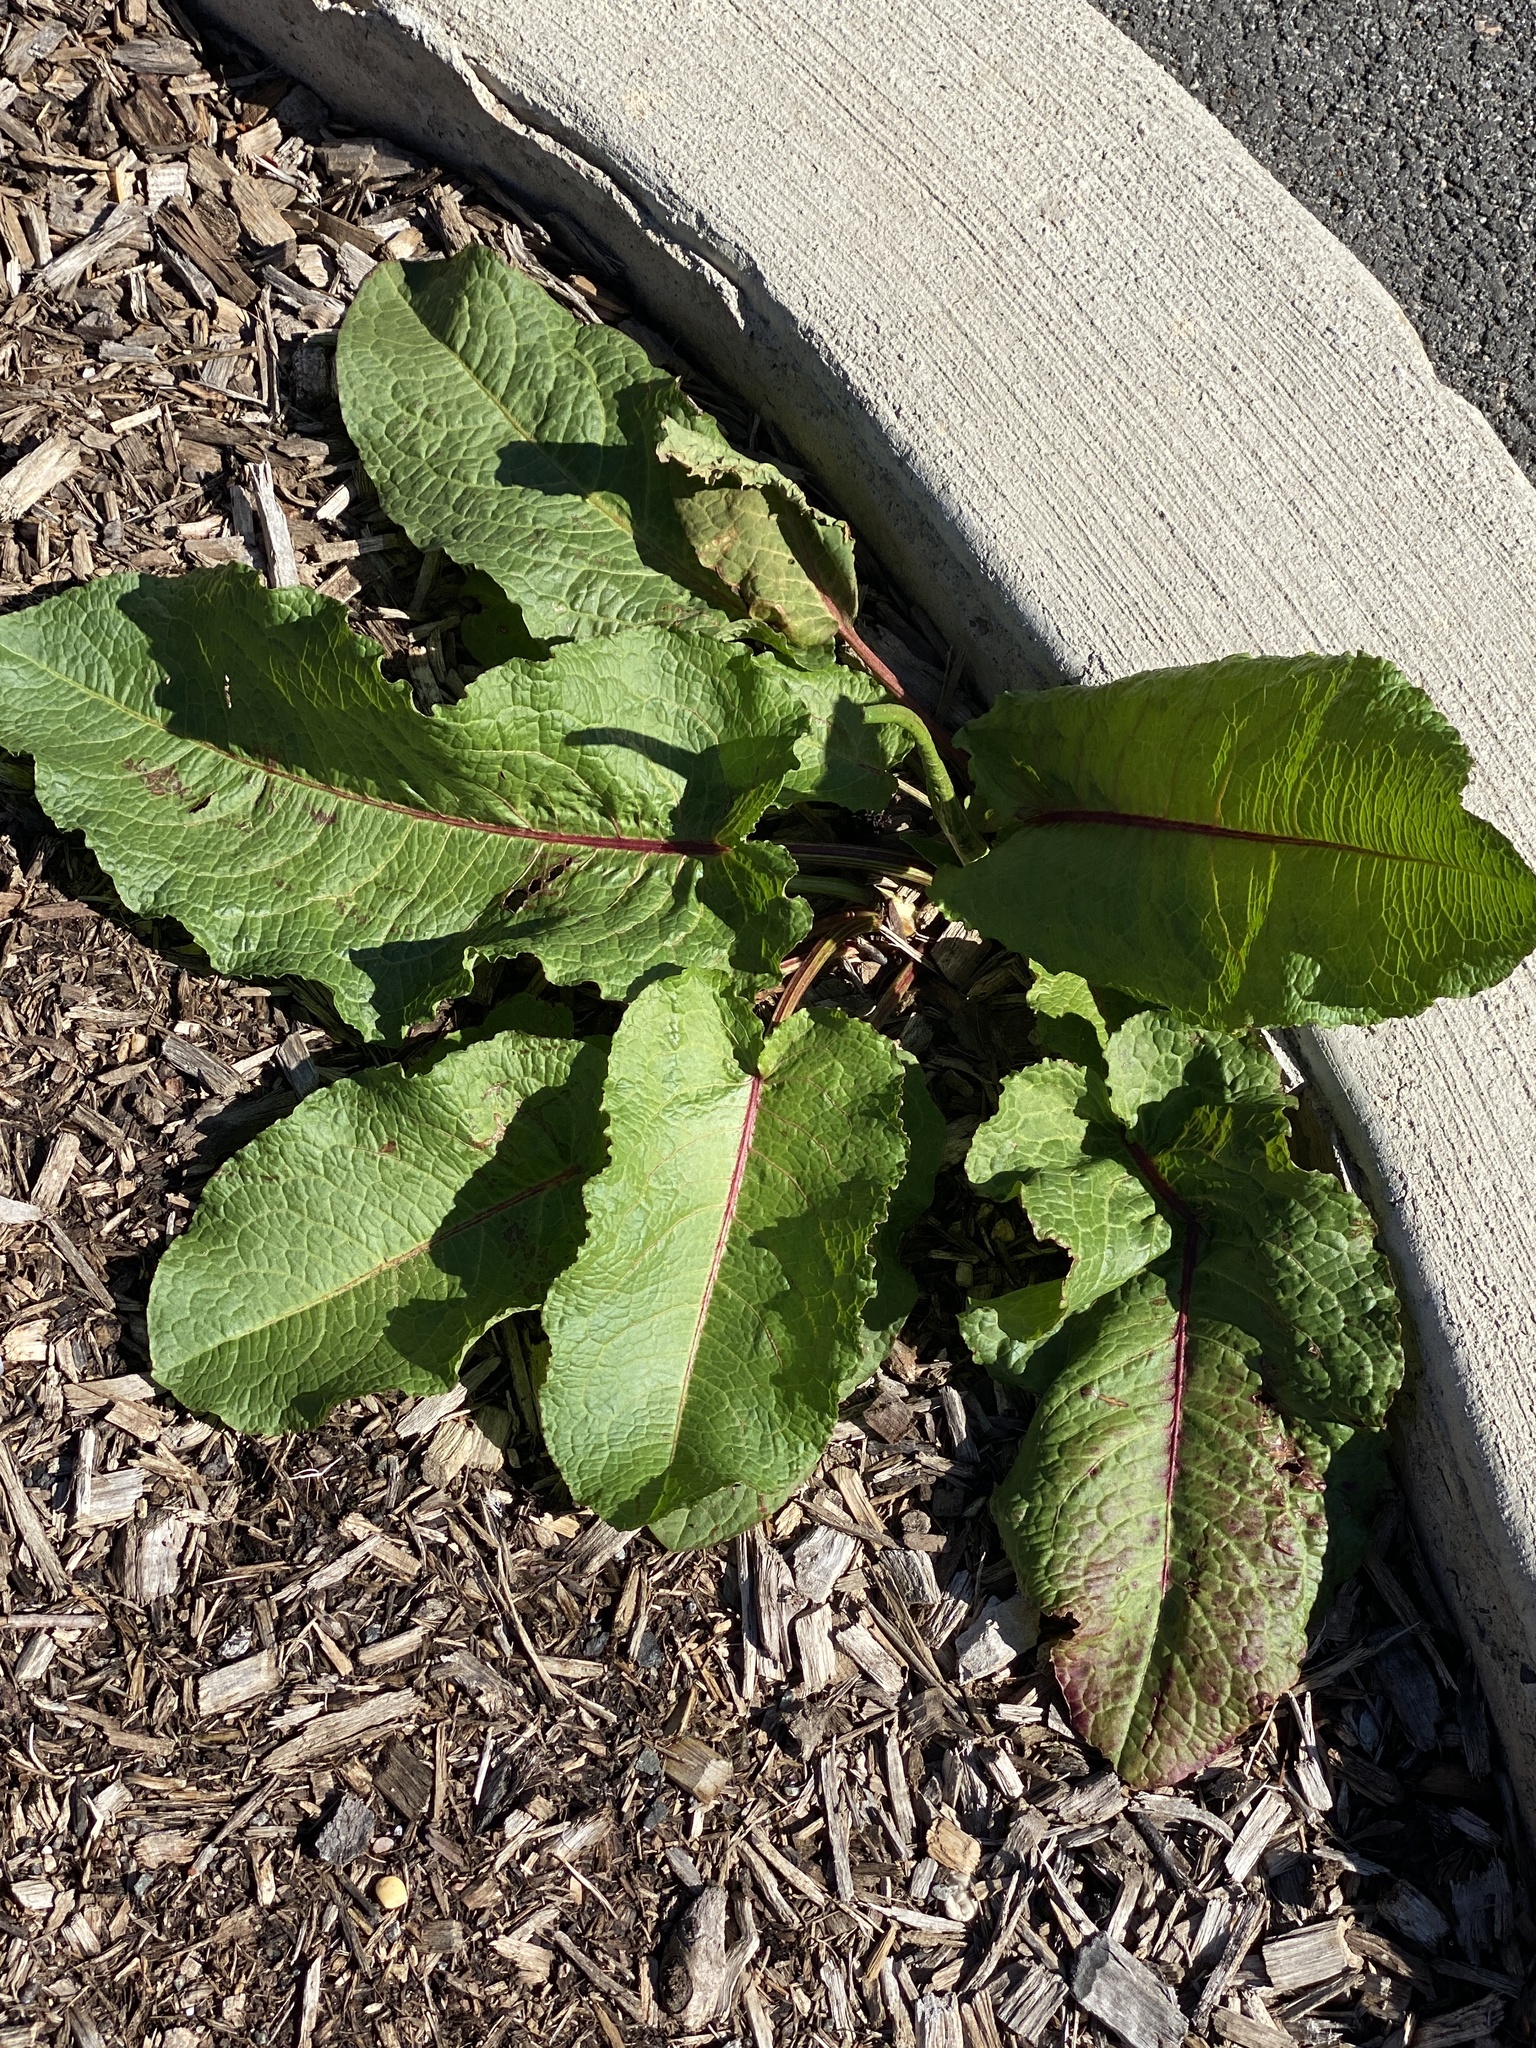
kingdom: Plantae
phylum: Tracheophyta
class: Magnoliopsida
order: Caryophyllales
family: Polygonaceae
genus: Rumex
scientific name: Rumex obtusifolius
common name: Bitter dock
